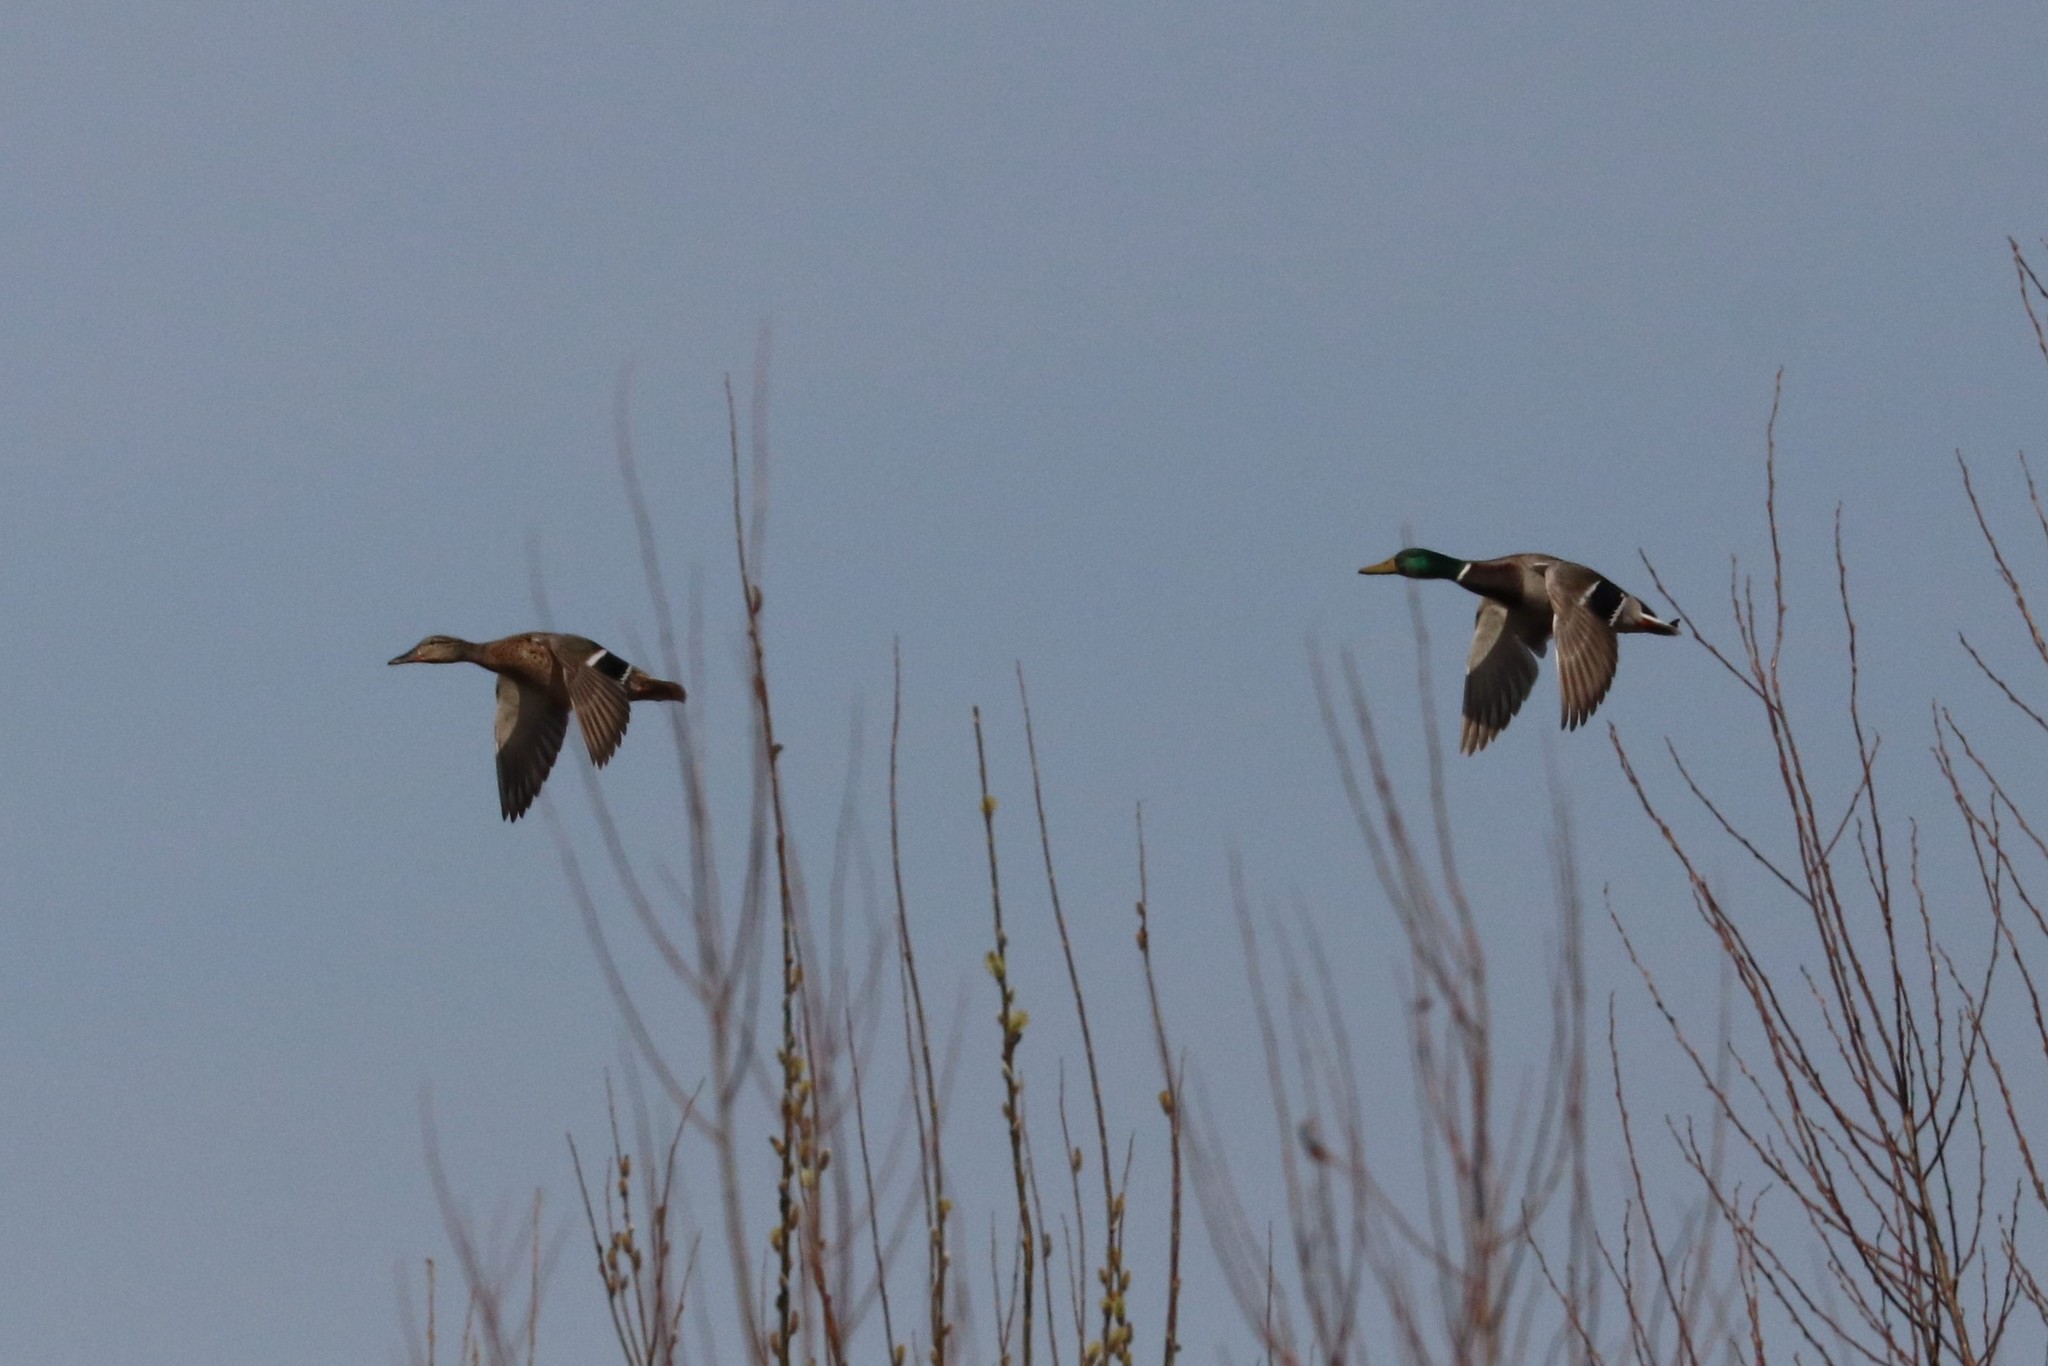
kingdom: Animalia
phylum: Chordata
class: Aves
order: Anseriformes
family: Anatidae
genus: Anas
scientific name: Anas platyrhynchos
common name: Mallard
